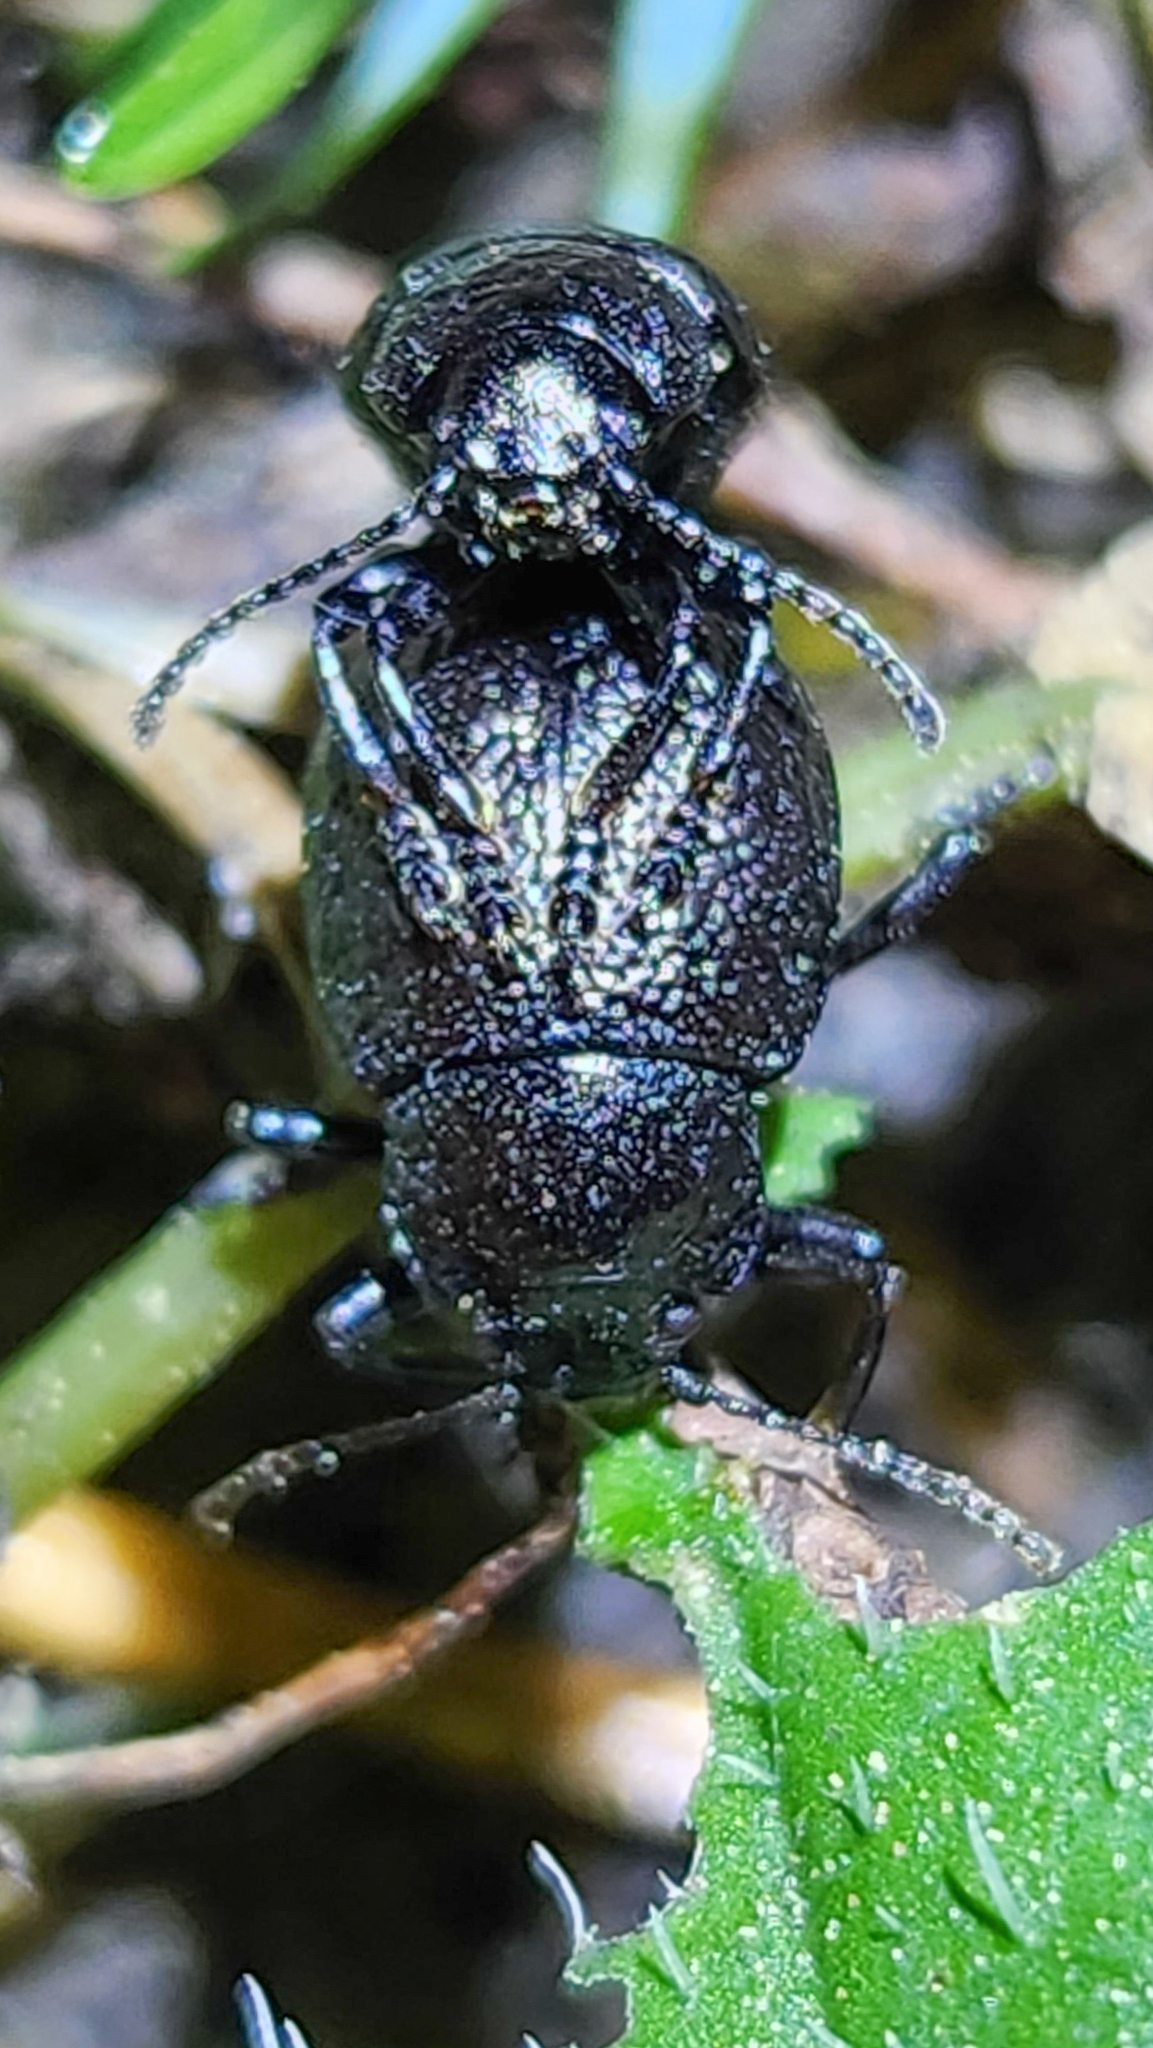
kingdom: Animalia
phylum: Arthropoda
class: Insecta
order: Coleoptera
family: Chrysomelidae
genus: Timarcha
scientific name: Timarcha intricata
